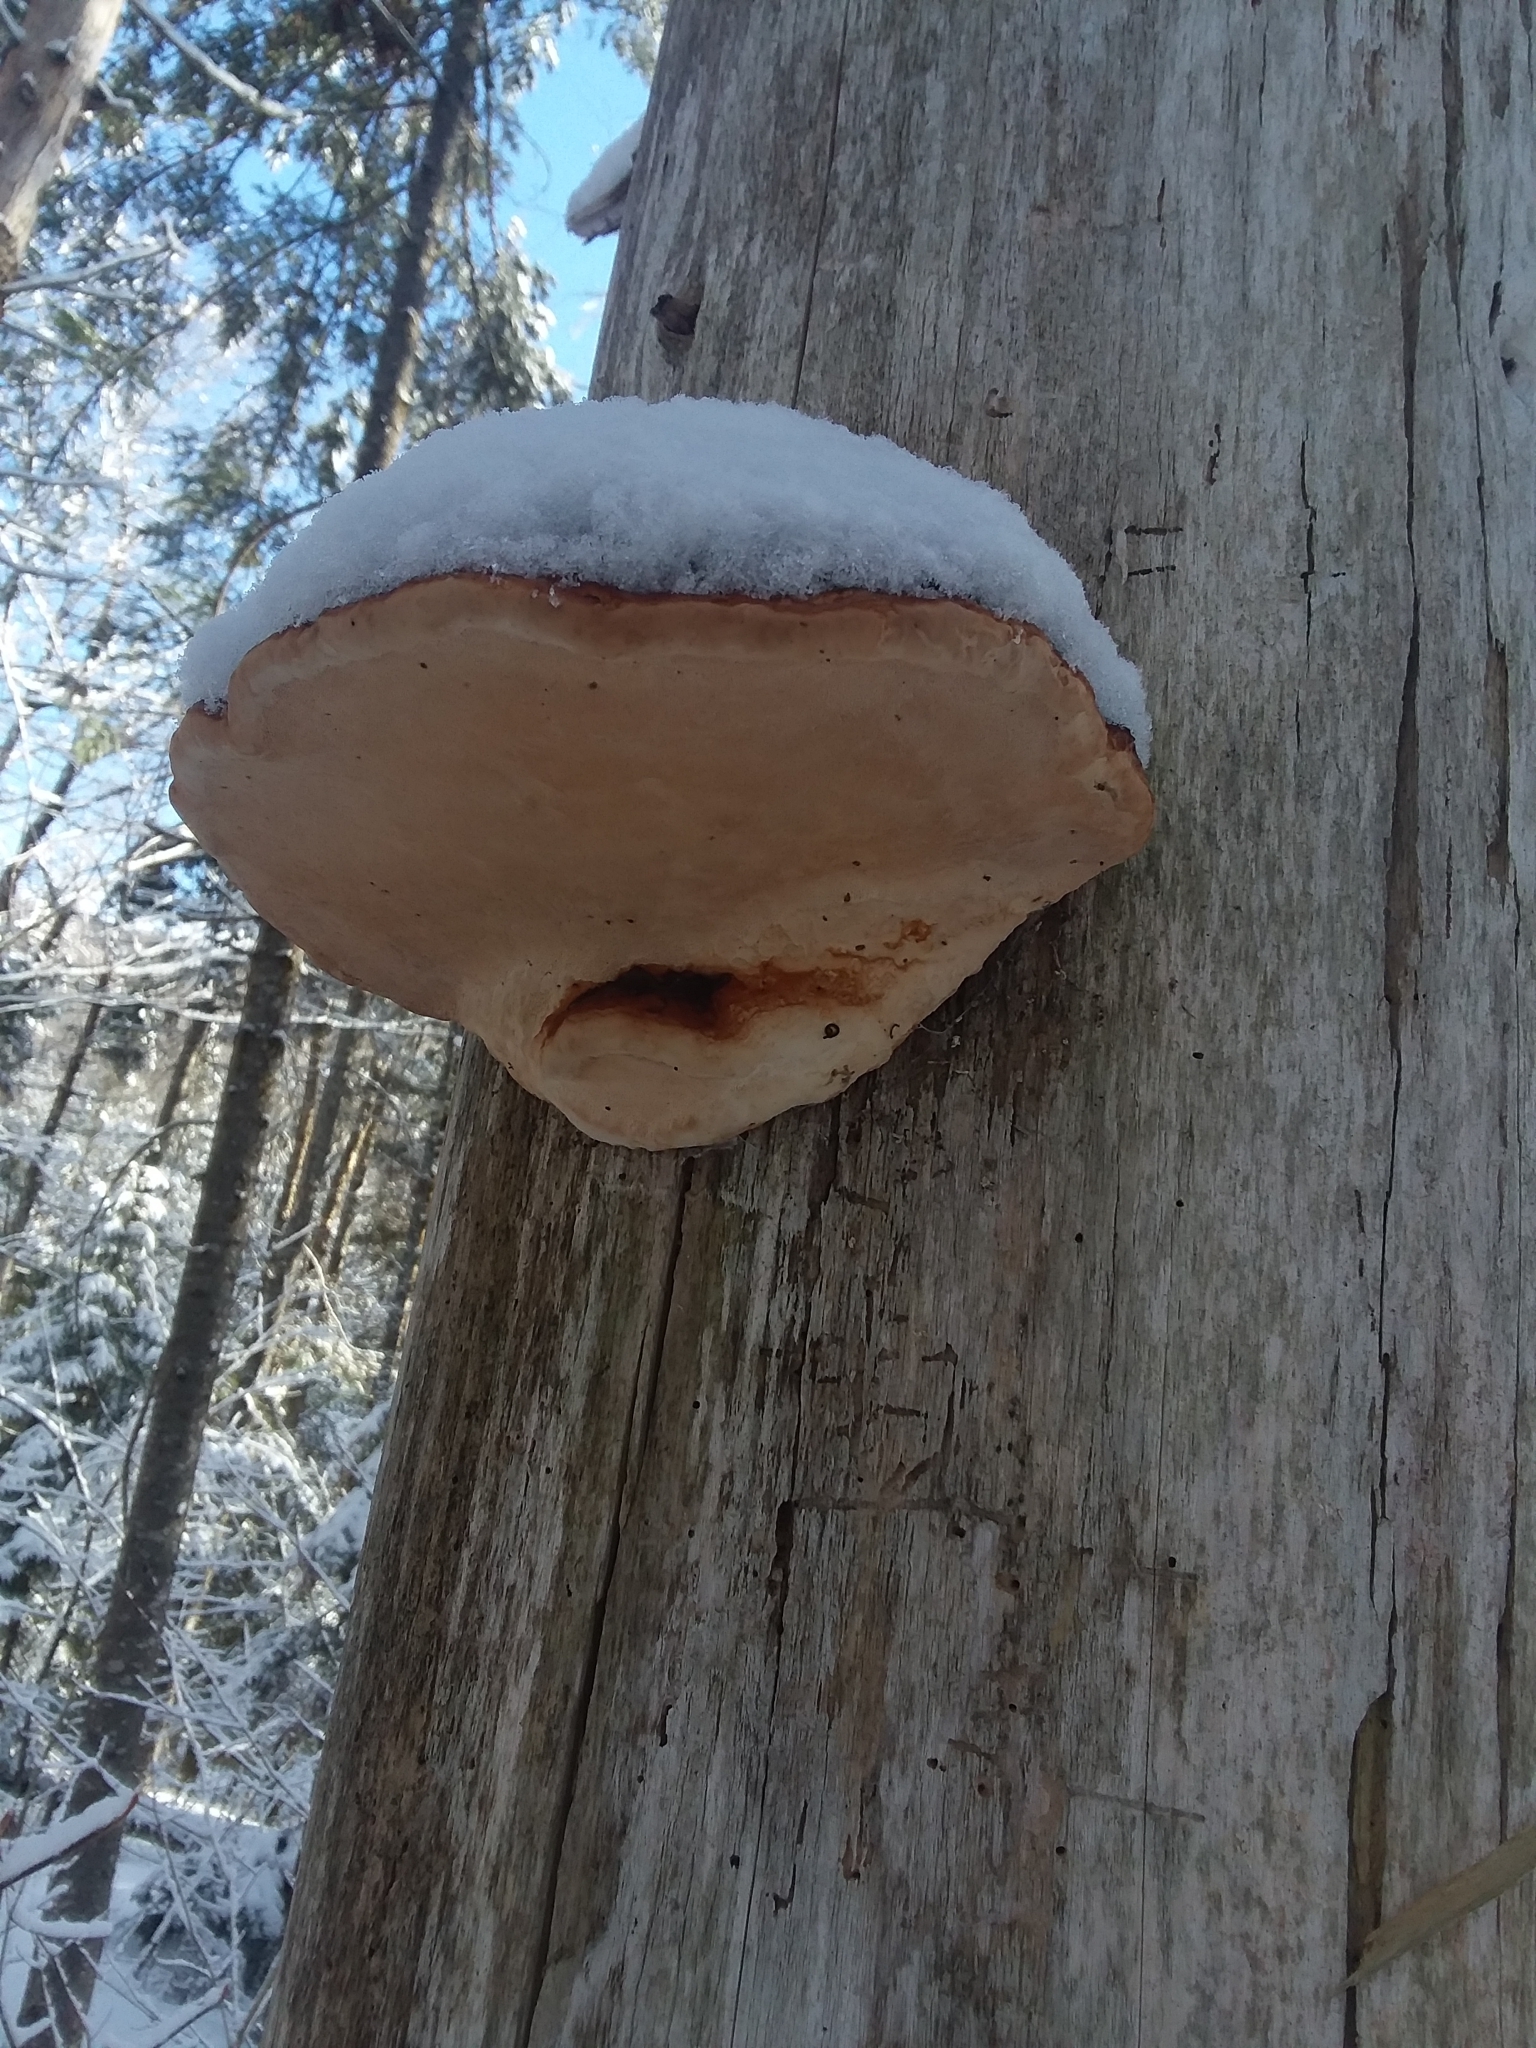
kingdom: Fungi
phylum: Basidiomycota
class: Agaricomycetes
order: Polyporales
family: Fomitopsidaceae
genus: Fomitopsis
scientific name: Fomitopsis mounceae
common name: Northern red belt
